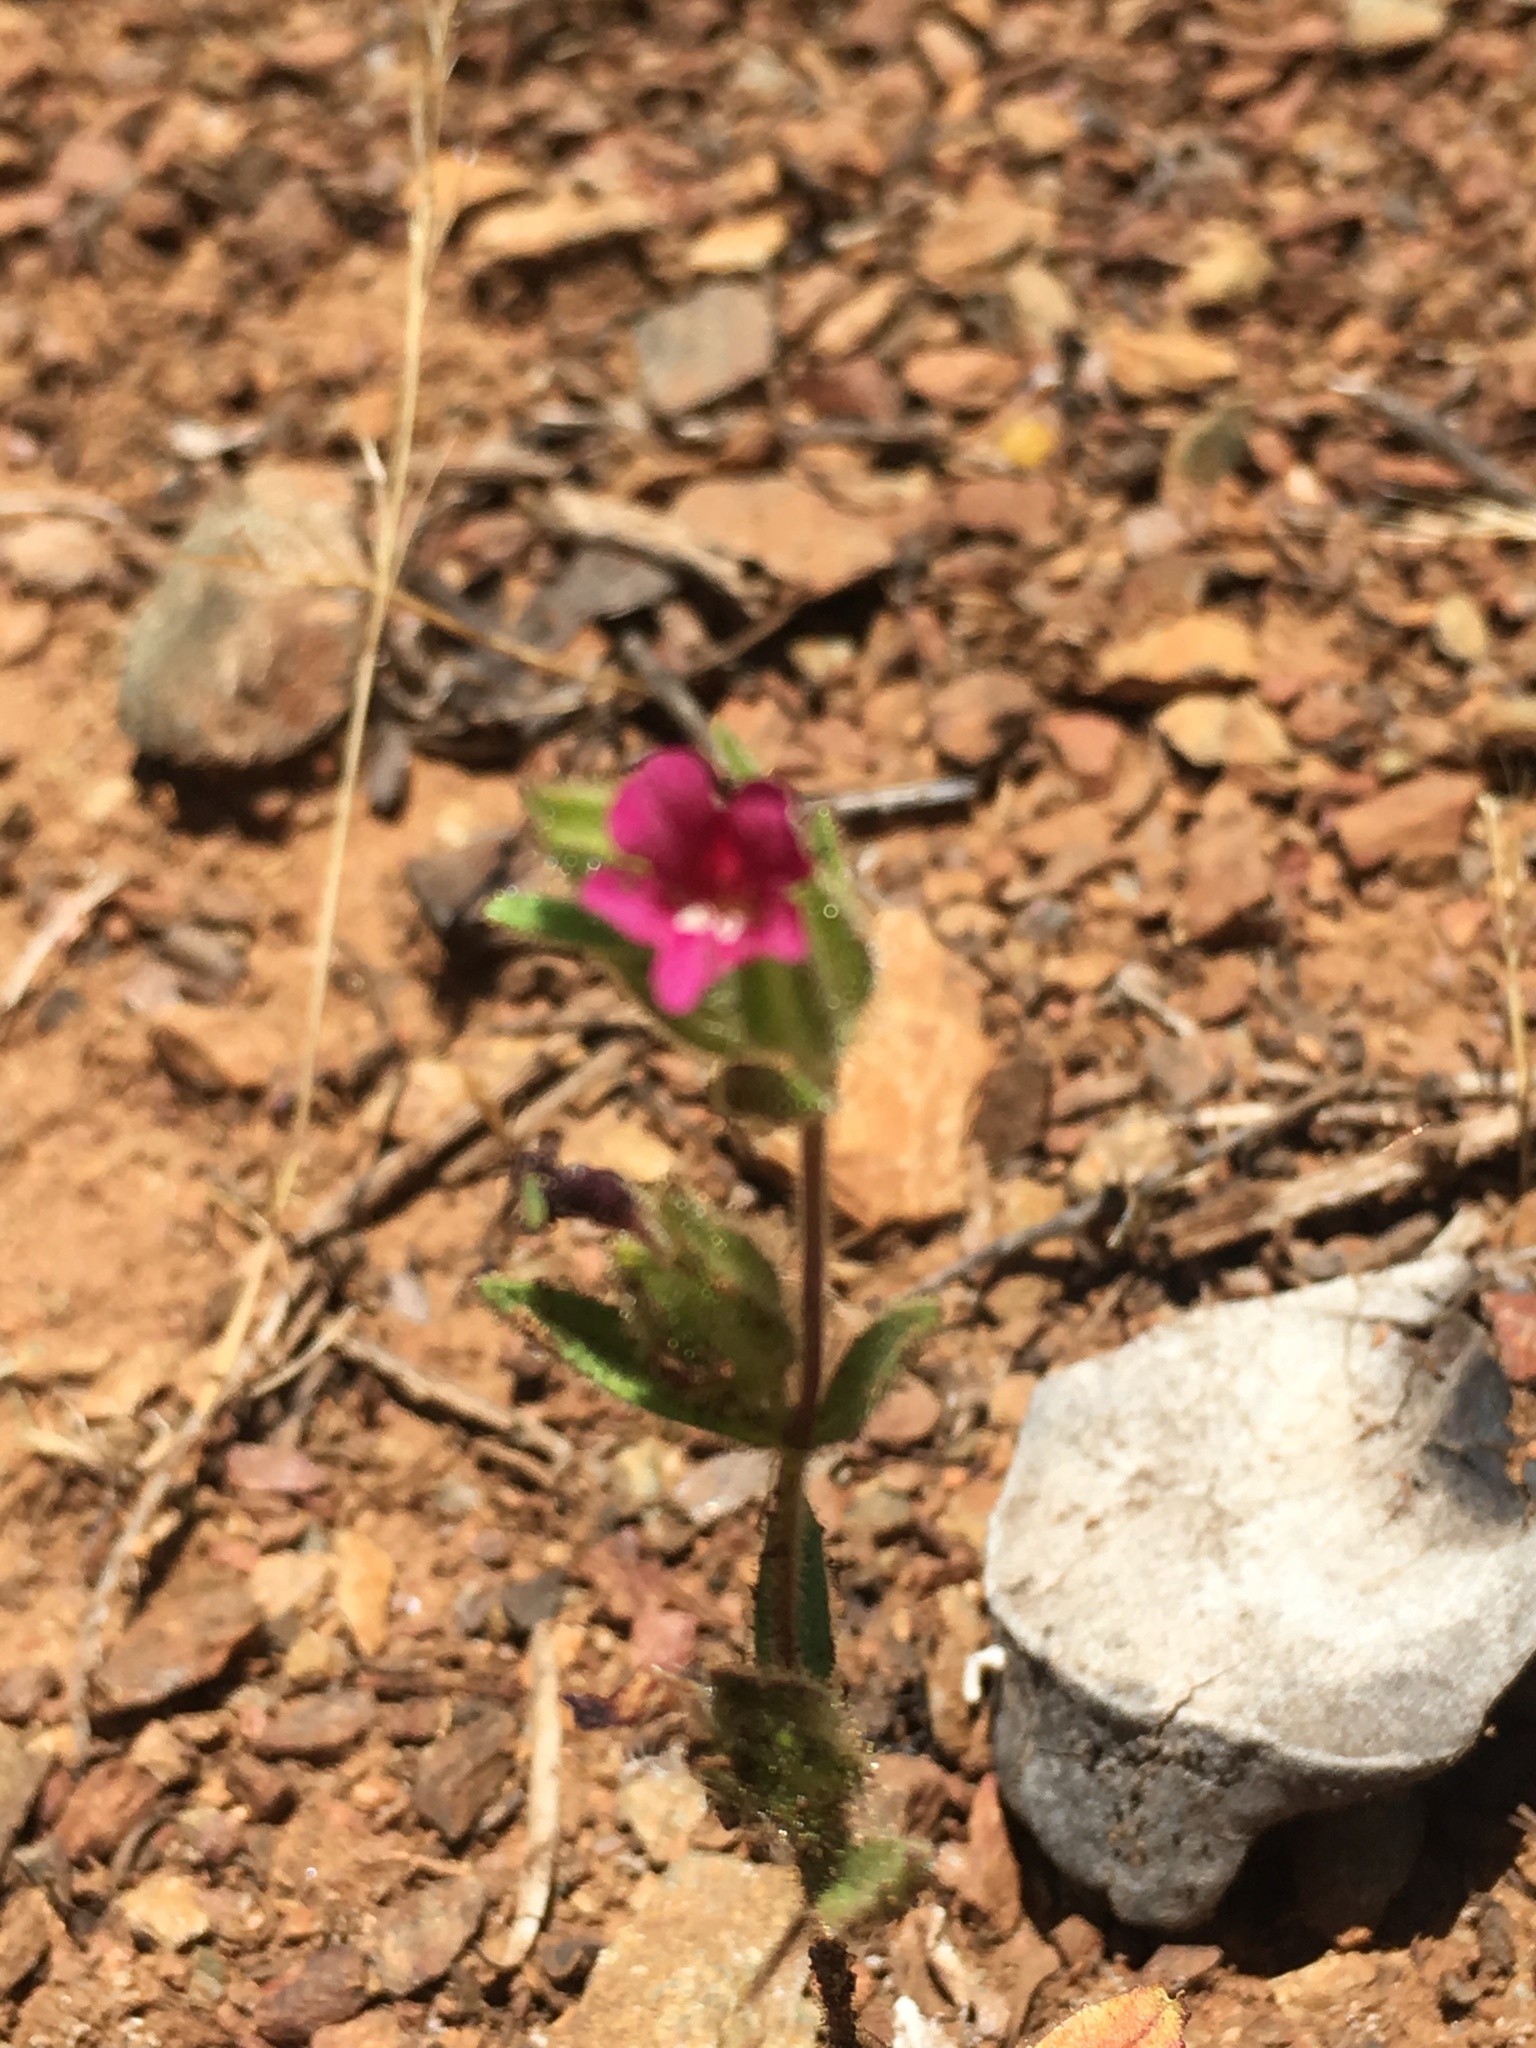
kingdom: Plantae
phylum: Tracheophyta
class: Magnoliopsida
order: Lamiales
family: Phrymaceae
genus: Diplacus
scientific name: Diplacus bolanderi
